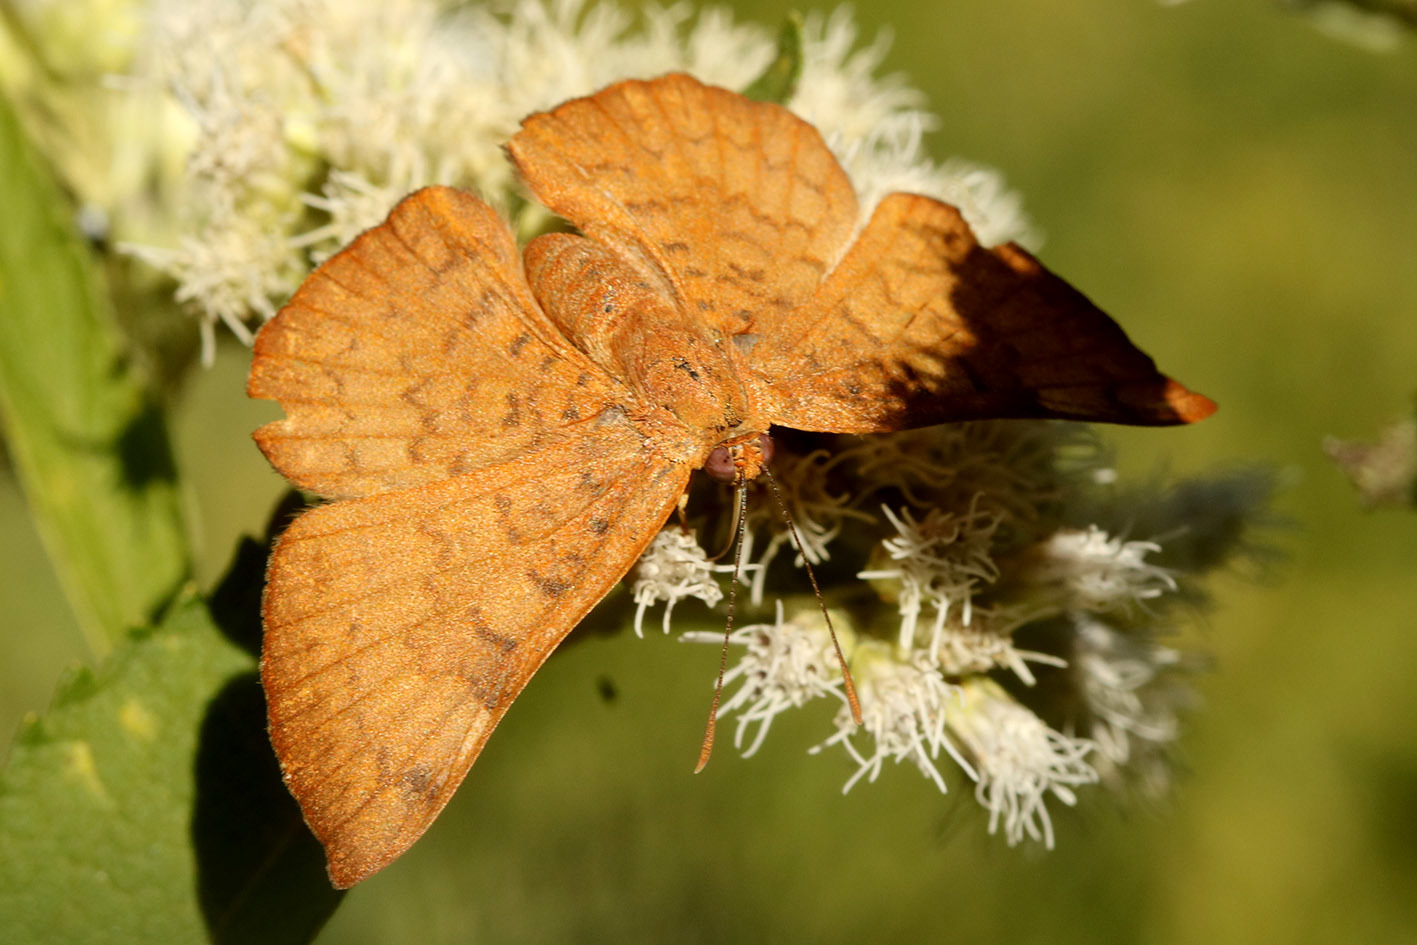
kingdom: Animalia
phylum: Arthropoda
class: Insecta
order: Lepidoptera
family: Lycaenidae
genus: Emesis
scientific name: Emesis russula
